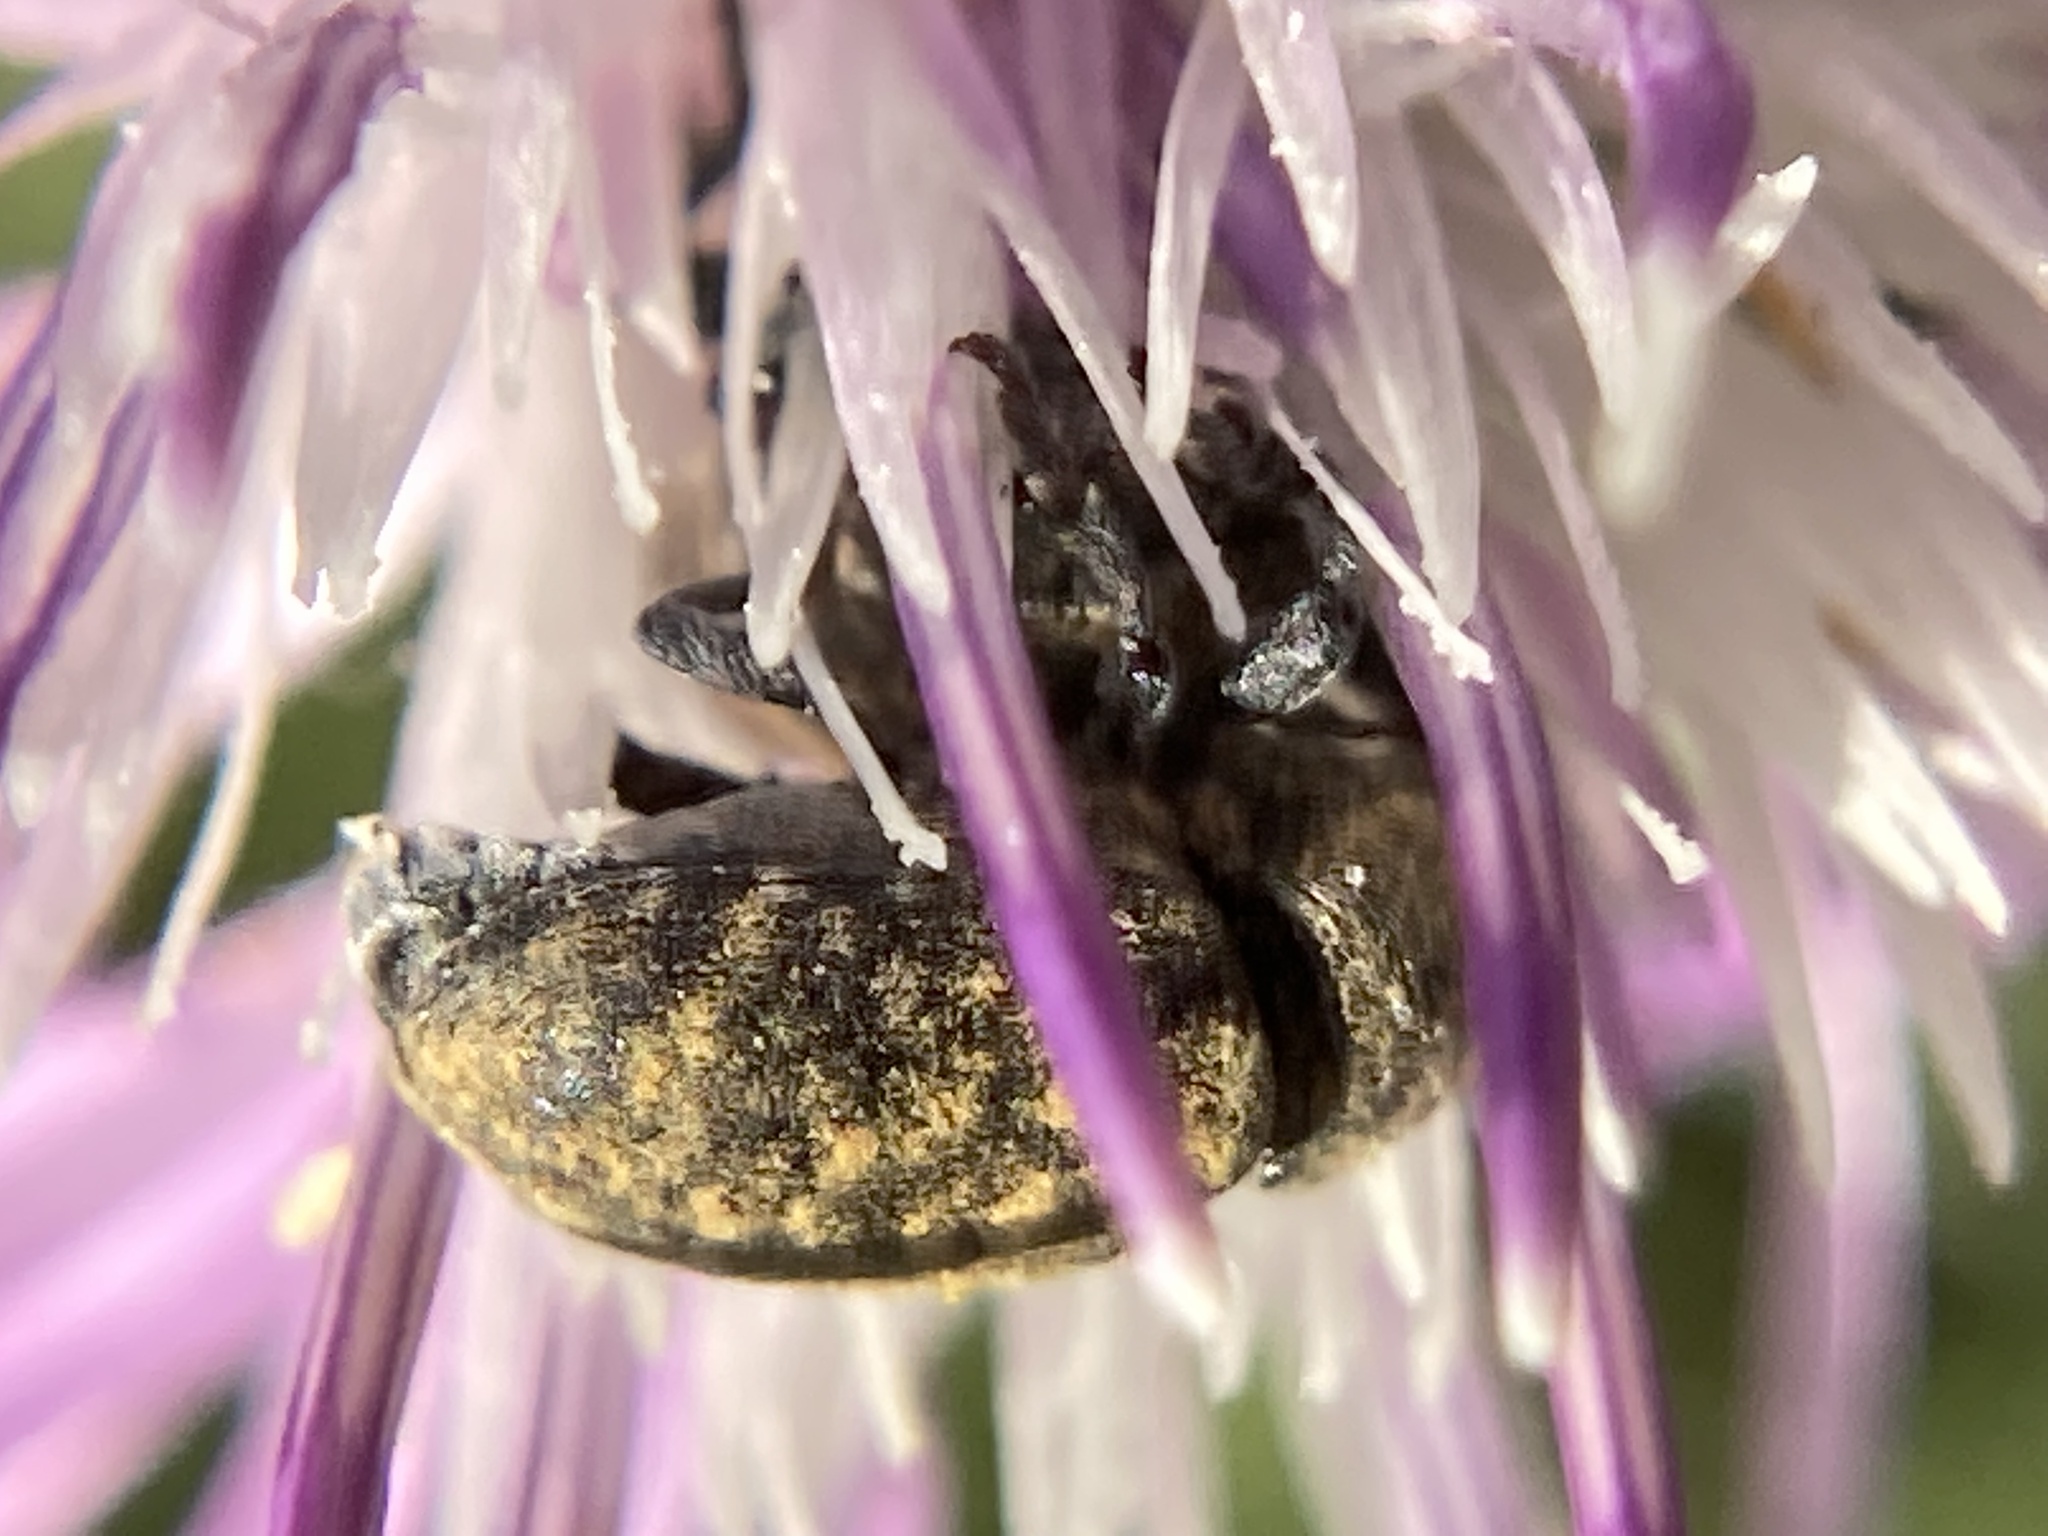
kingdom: Animalia
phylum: Arthropoda
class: Insecta
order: Coleoptera
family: Curculionidae
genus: Larinus
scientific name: Larinus obtusus
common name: Weevil
